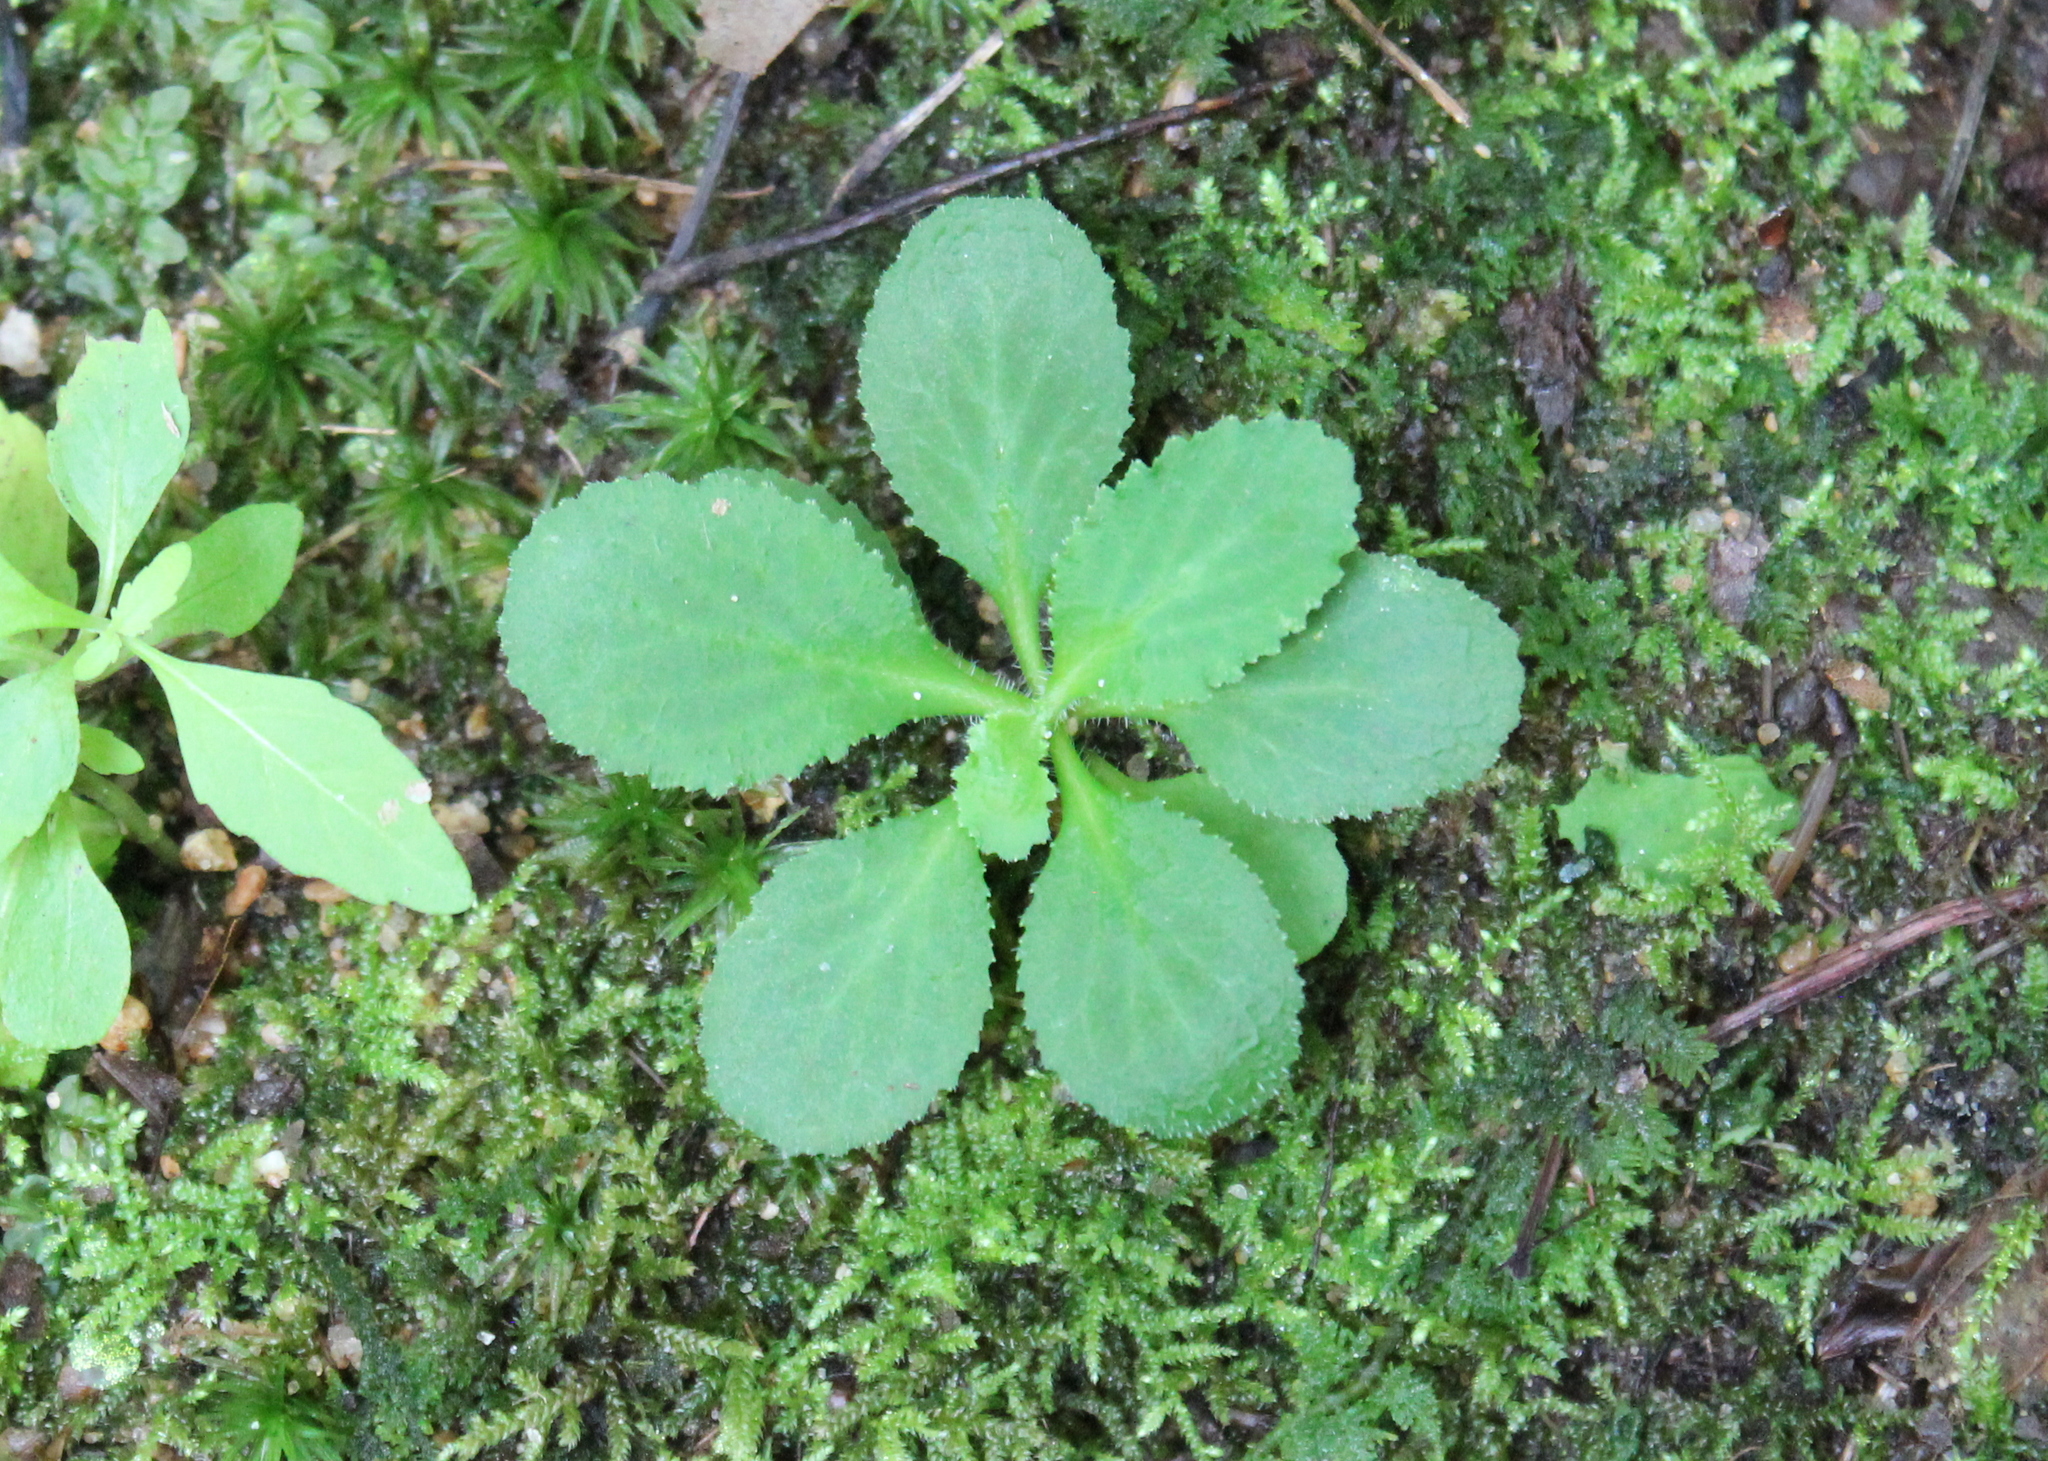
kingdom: Plantae
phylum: Tracheophyta
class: Magnoliopsida
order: Asterales
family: Campanulaceae
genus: Lobelia
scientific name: Lobelia inflata
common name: Indian tobacco
